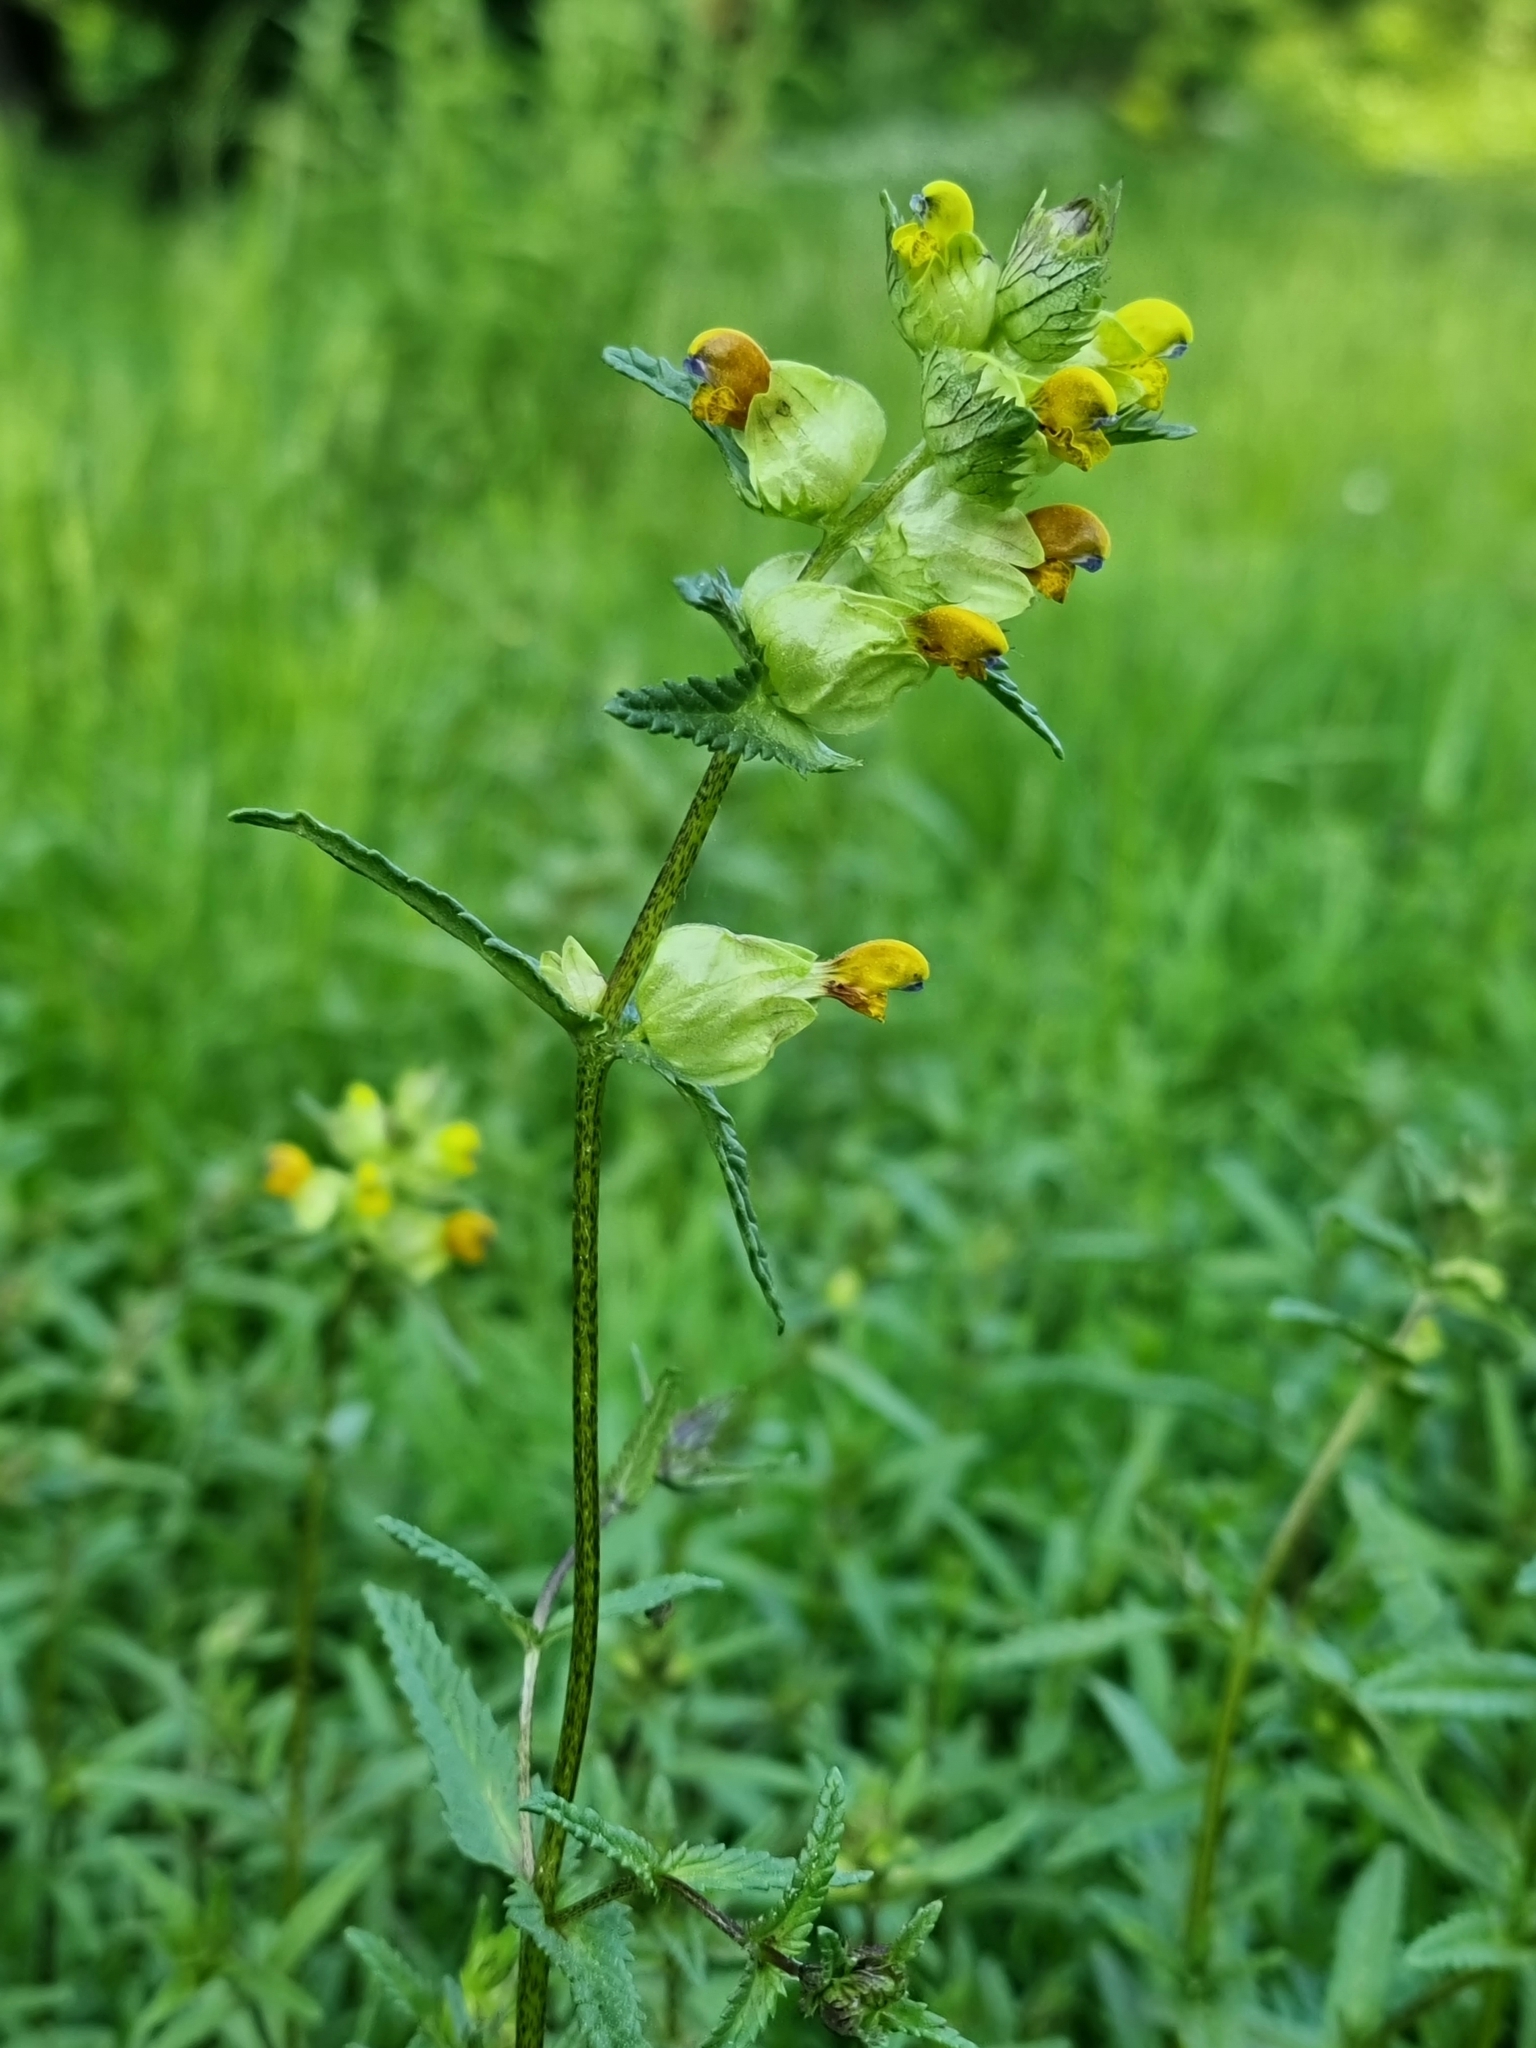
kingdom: Plantae
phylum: Tracheophyta
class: Magnoliopsida
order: Lamiales
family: Orobanchaceae
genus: Rhinanthus
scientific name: Rhinanthus minor
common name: Yellow-rattle
